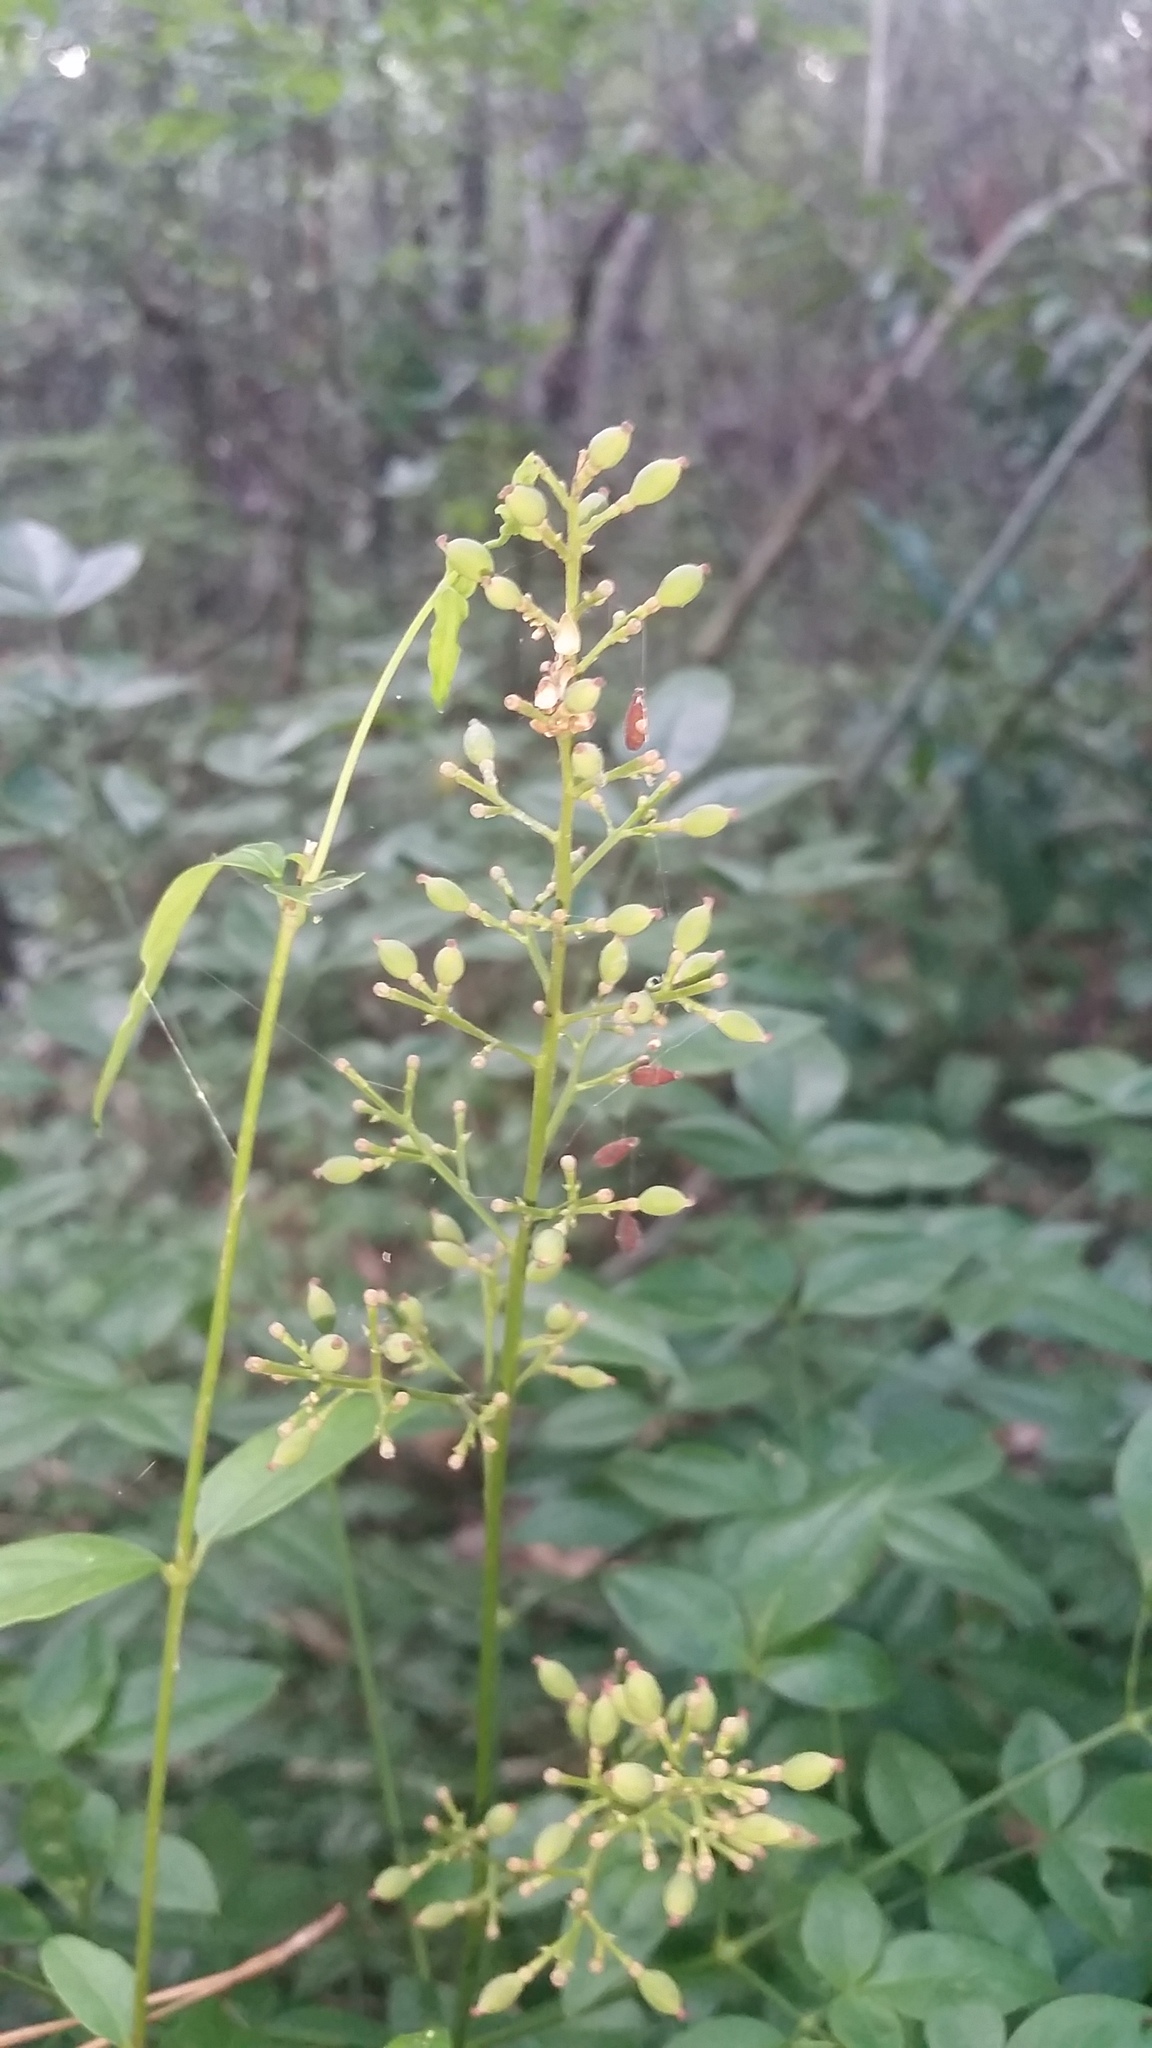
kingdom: Plantae
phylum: Tracheophyta
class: Magnoliopsida
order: Ranunculales
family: Berberidaceae
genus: Nandina
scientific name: Nandina domestica
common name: Sacred bamboo
